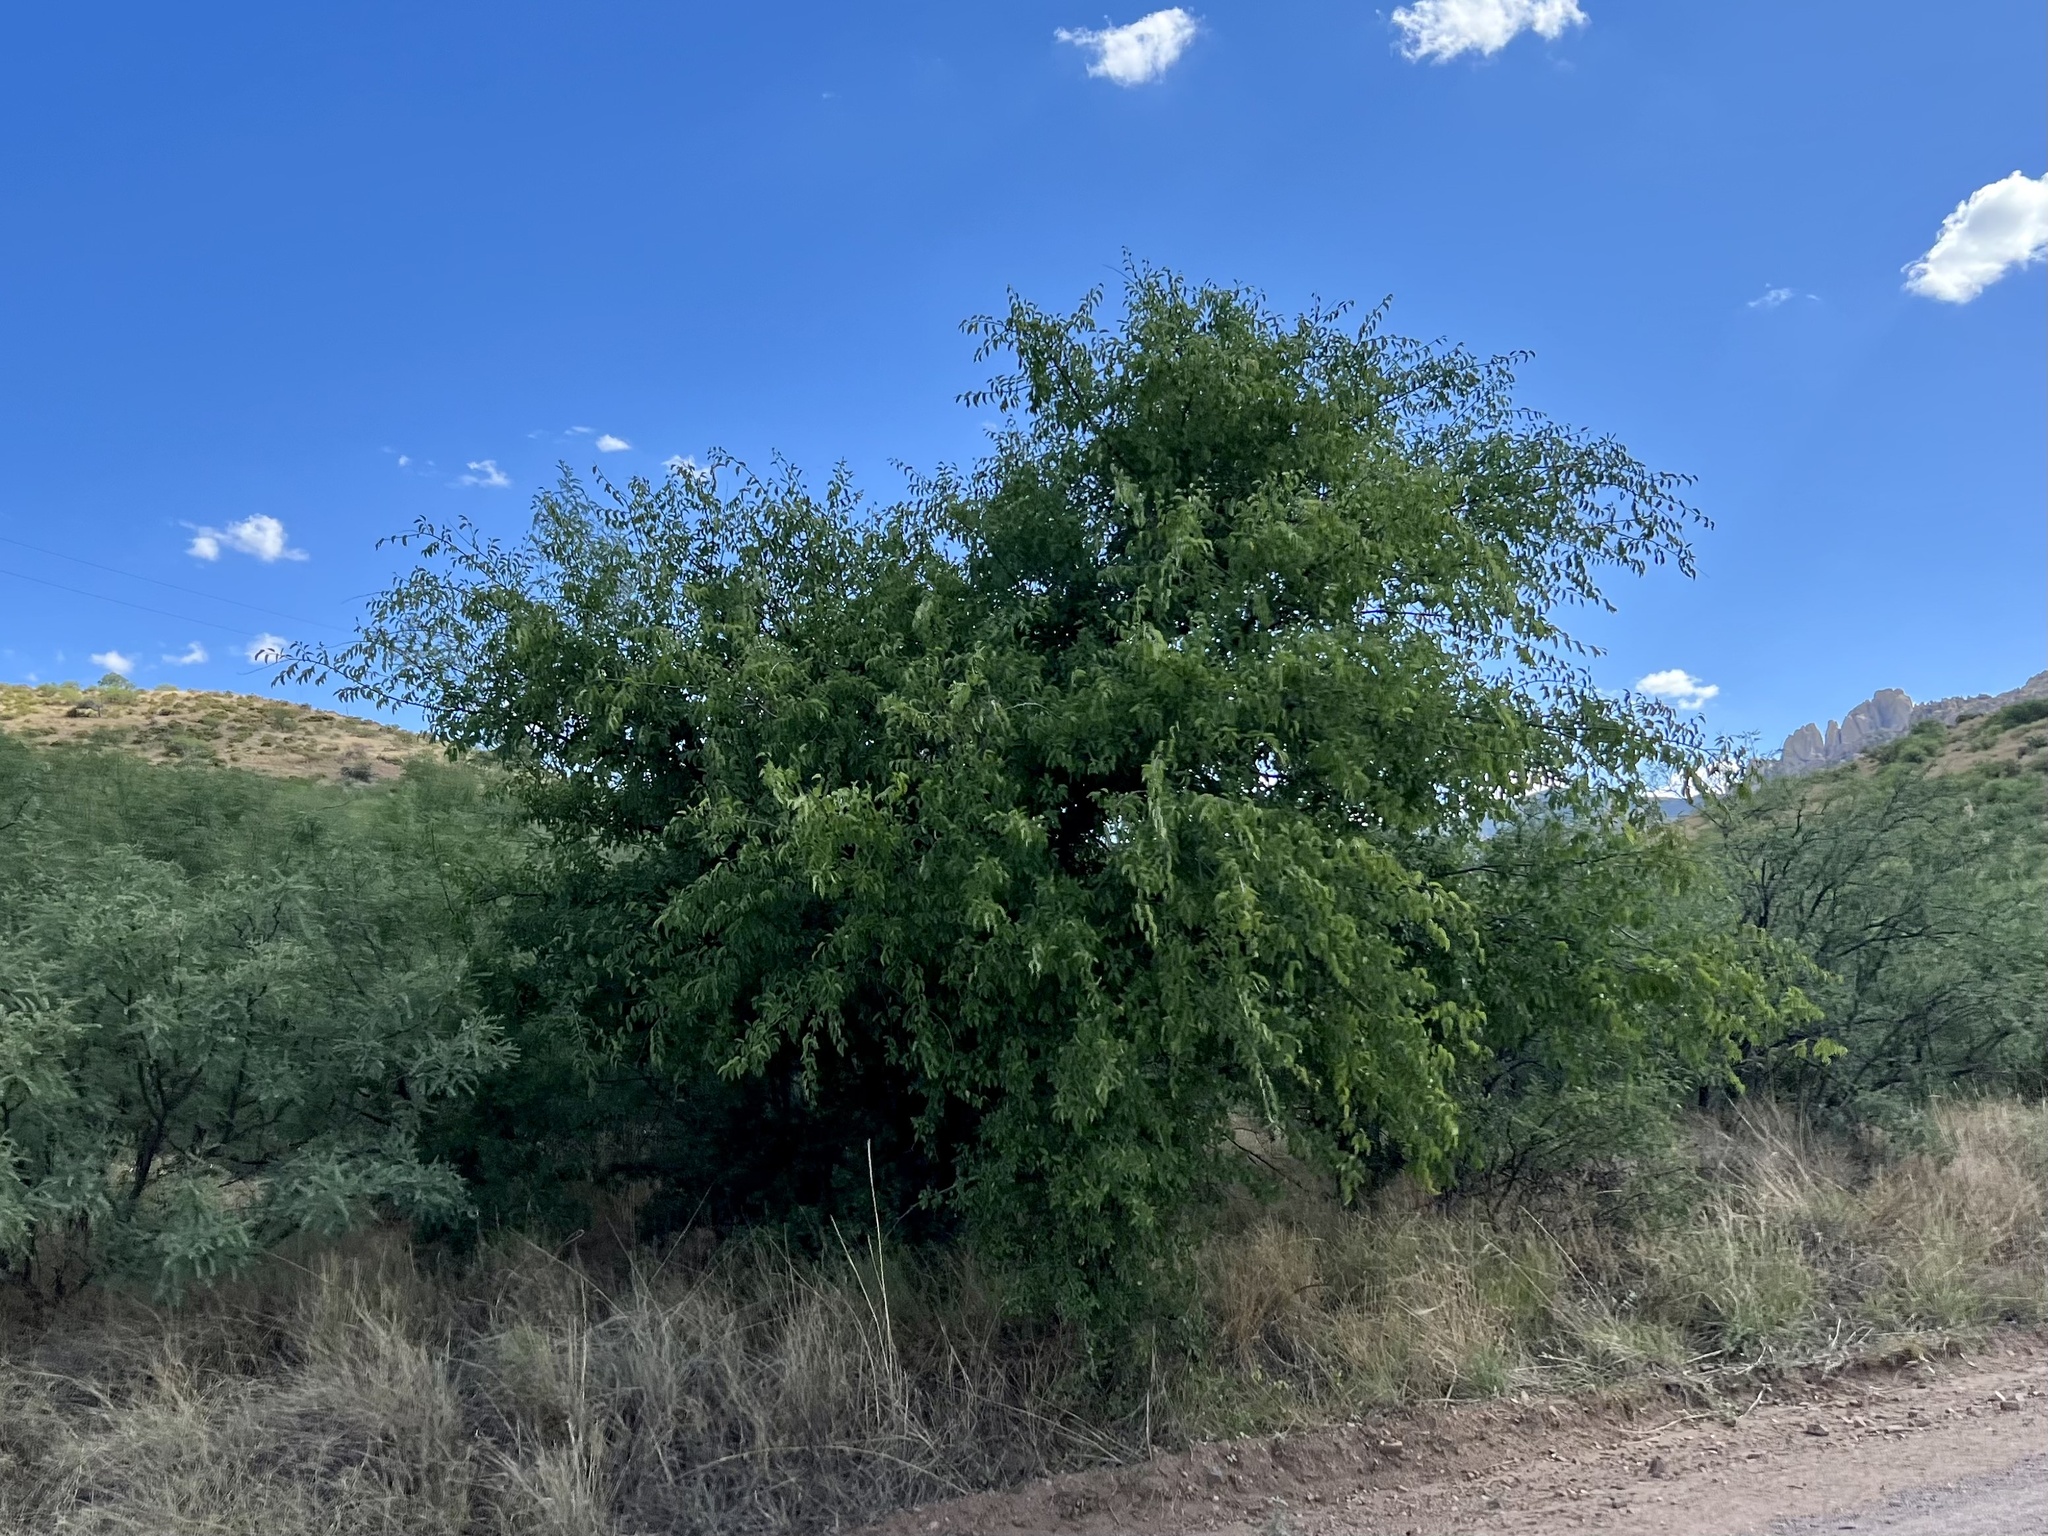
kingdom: Plantae
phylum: Tracheophyta
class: Magnoliopsida
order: Rosales
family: Cannabaceae
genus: Celtis
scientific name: Celtis reticulata
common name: Netleaf hackberry
